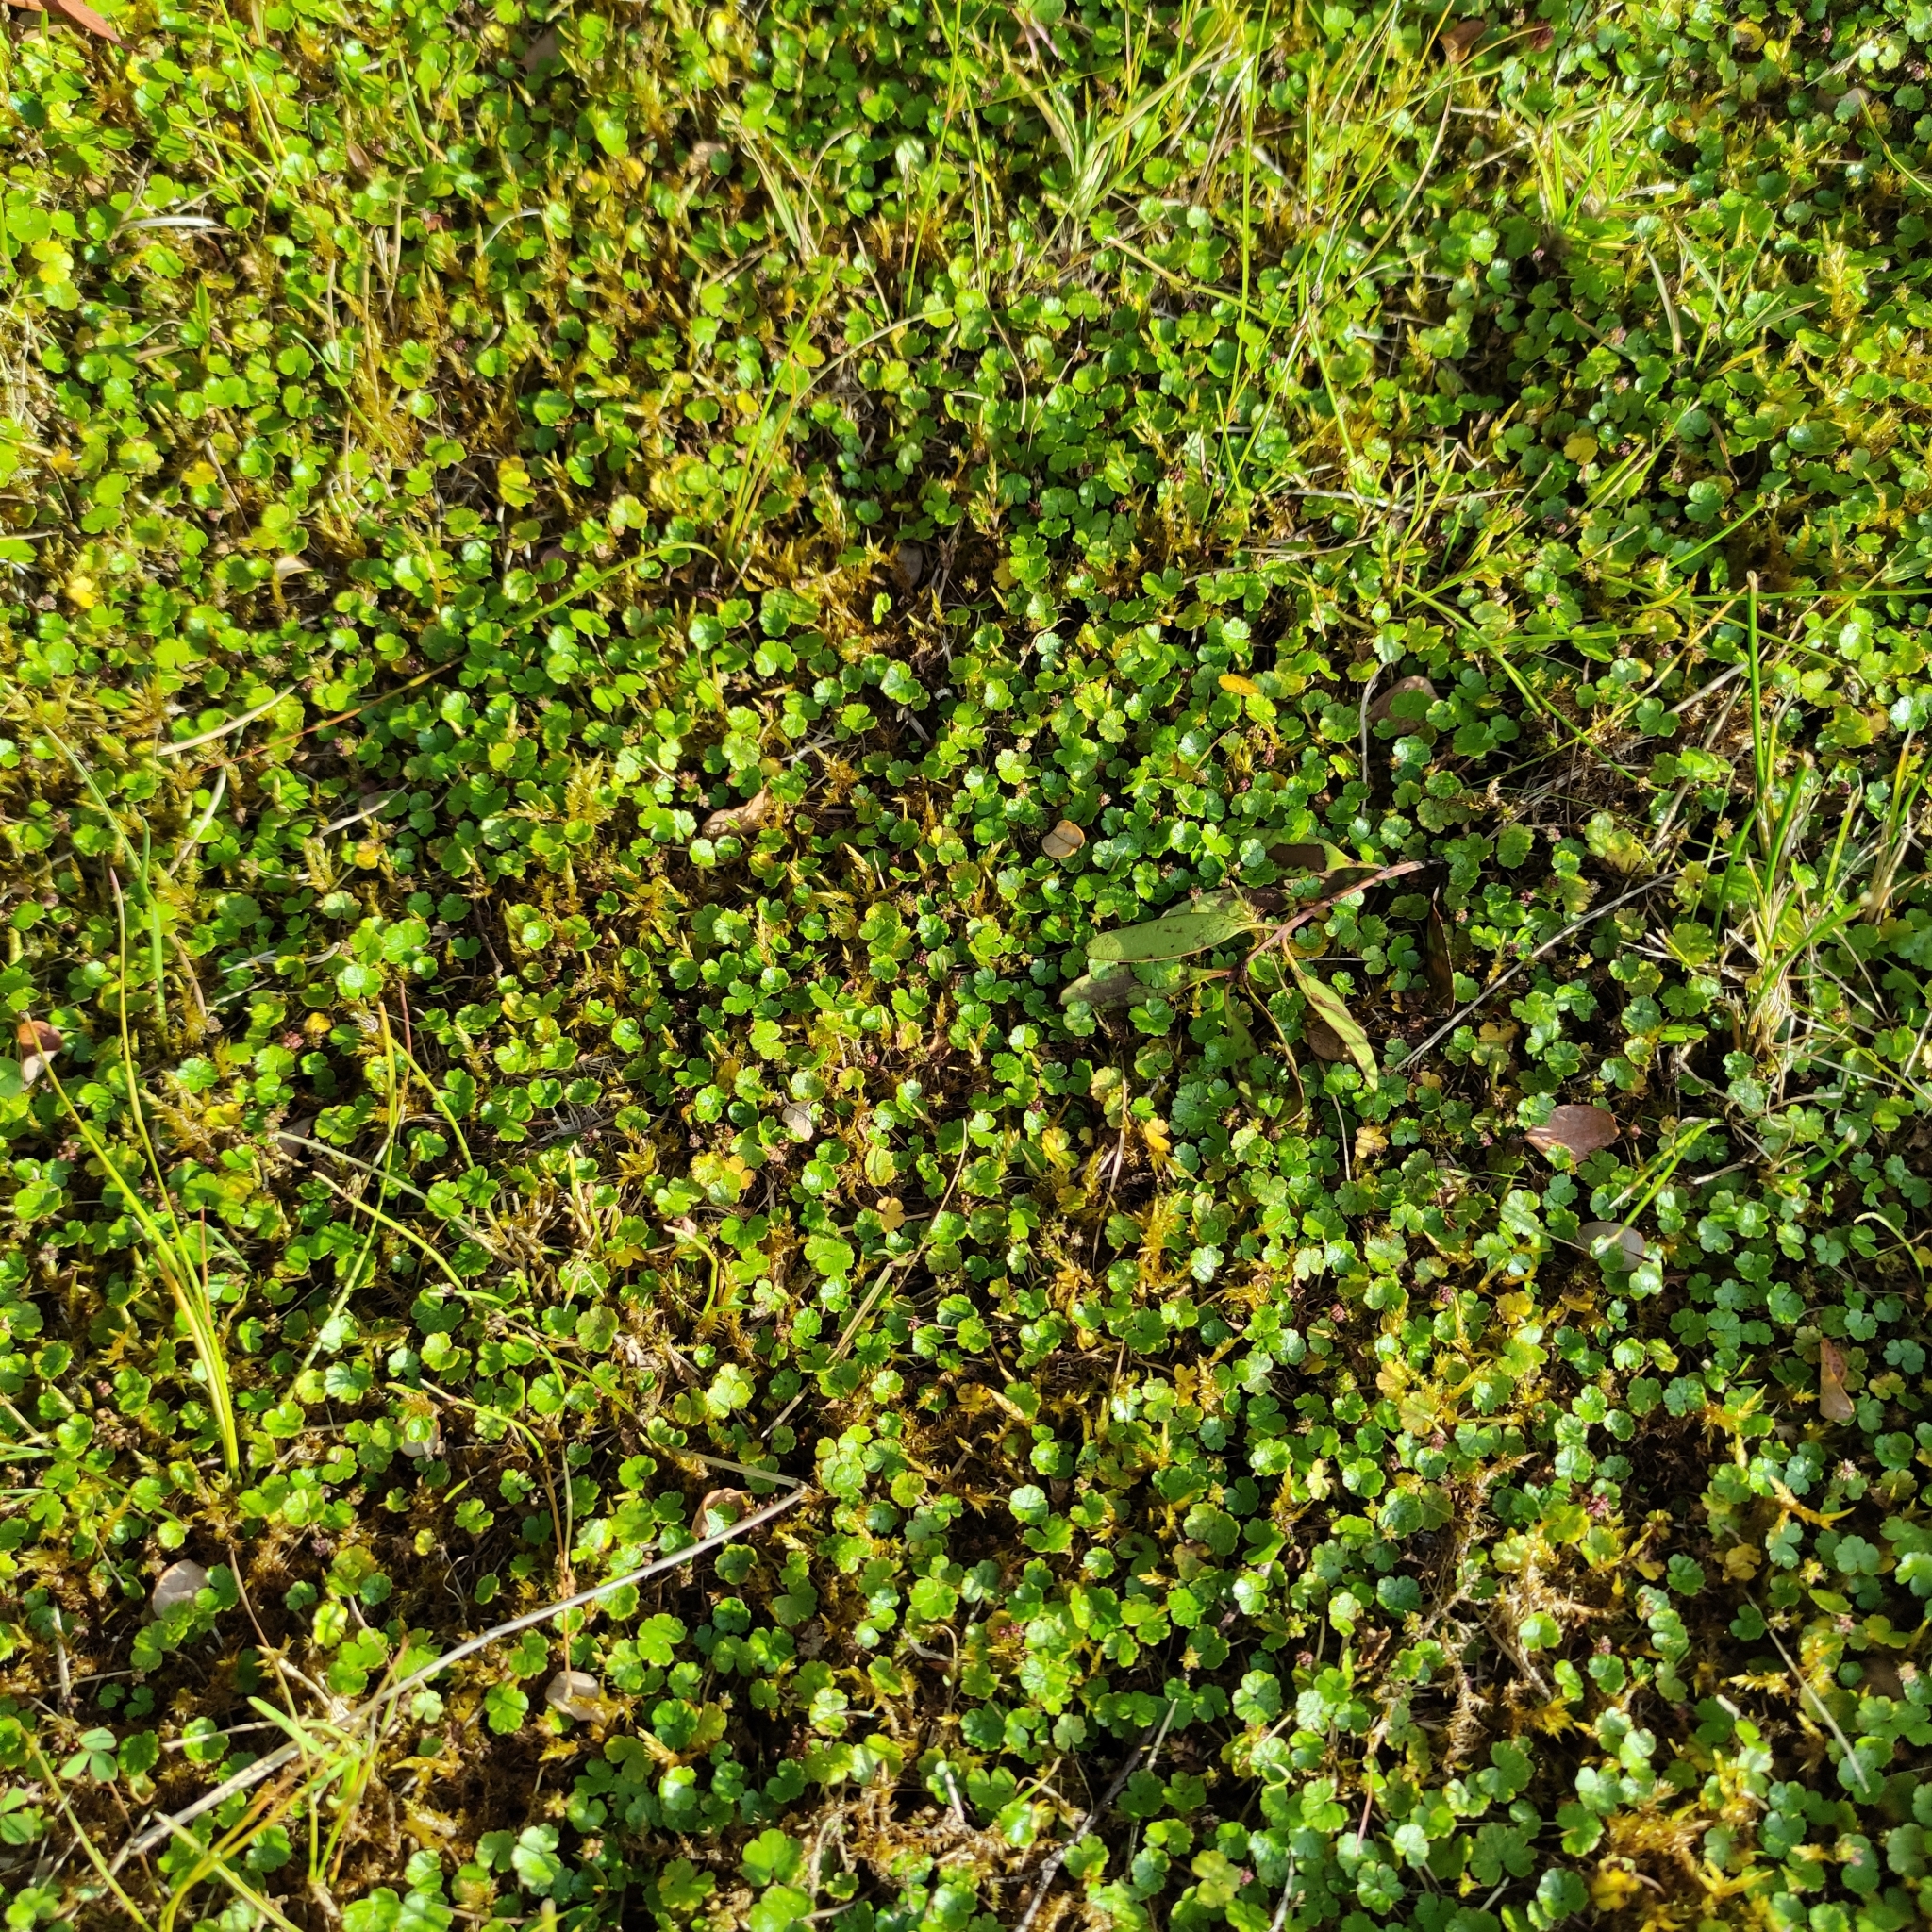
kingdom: Plantae
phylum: Tracheophyta
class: Magnoliopsida
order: Apiales
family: Araliaceae
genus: Hydrocotyle
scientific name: Hydrocotyle microphylla
